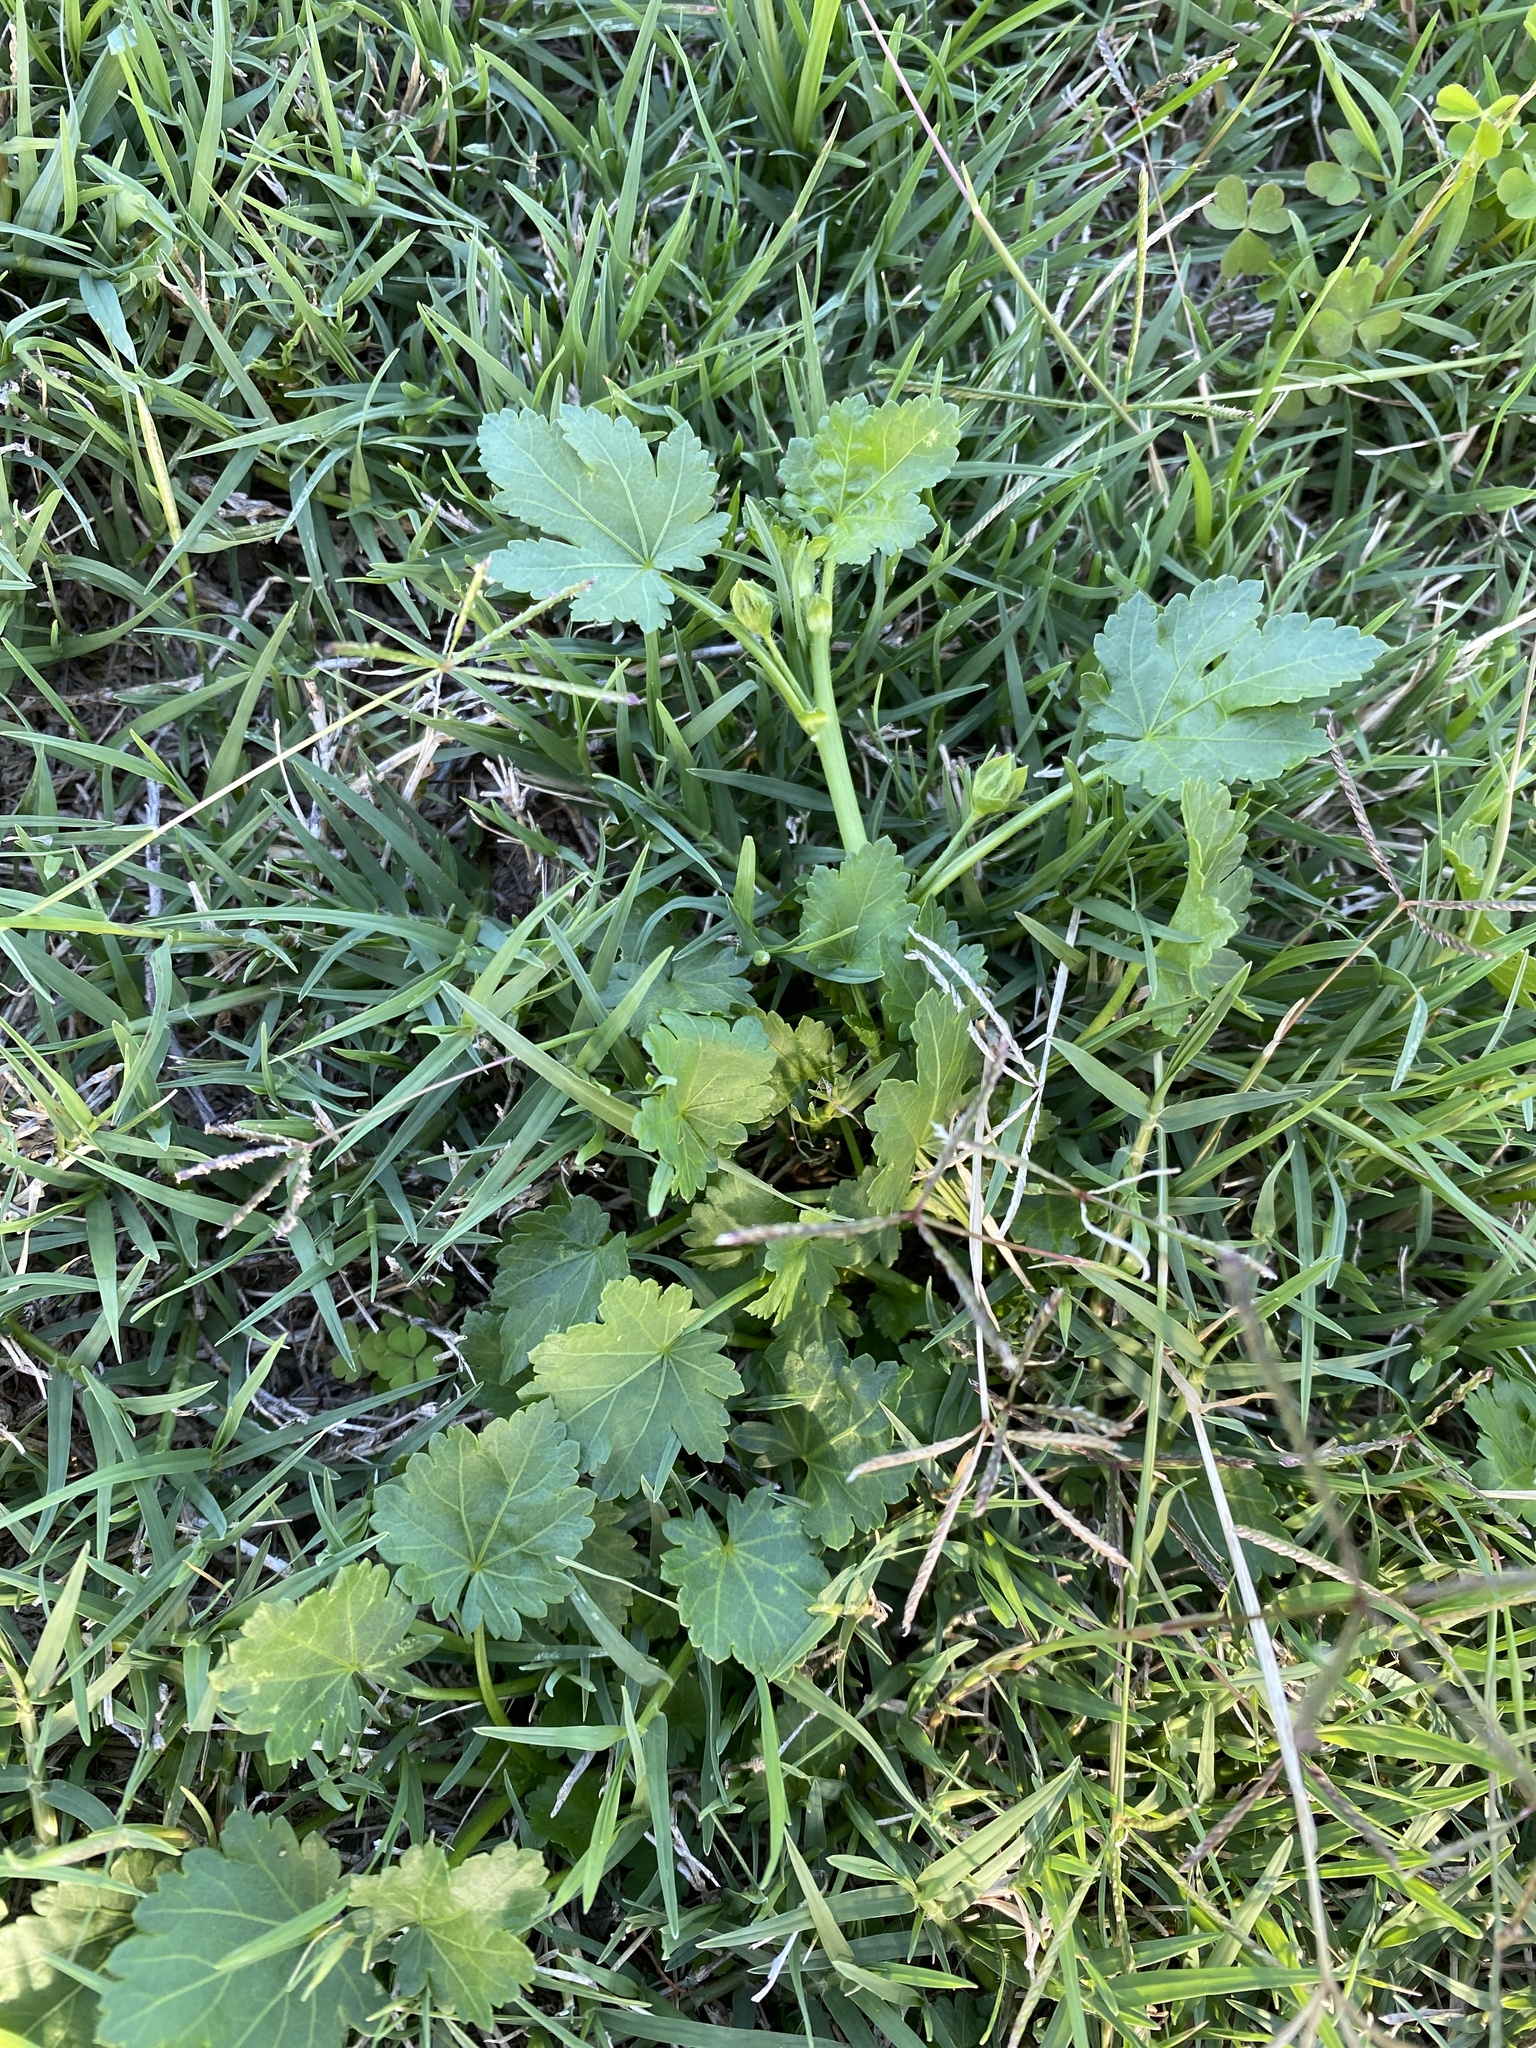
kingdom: Plantae
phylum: Tracheophyta
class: Magnoliopsida
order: Malvales
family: Malvaceae
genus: Modiola
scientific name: Modiola caroliniana
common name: Carolina bristlemallow
